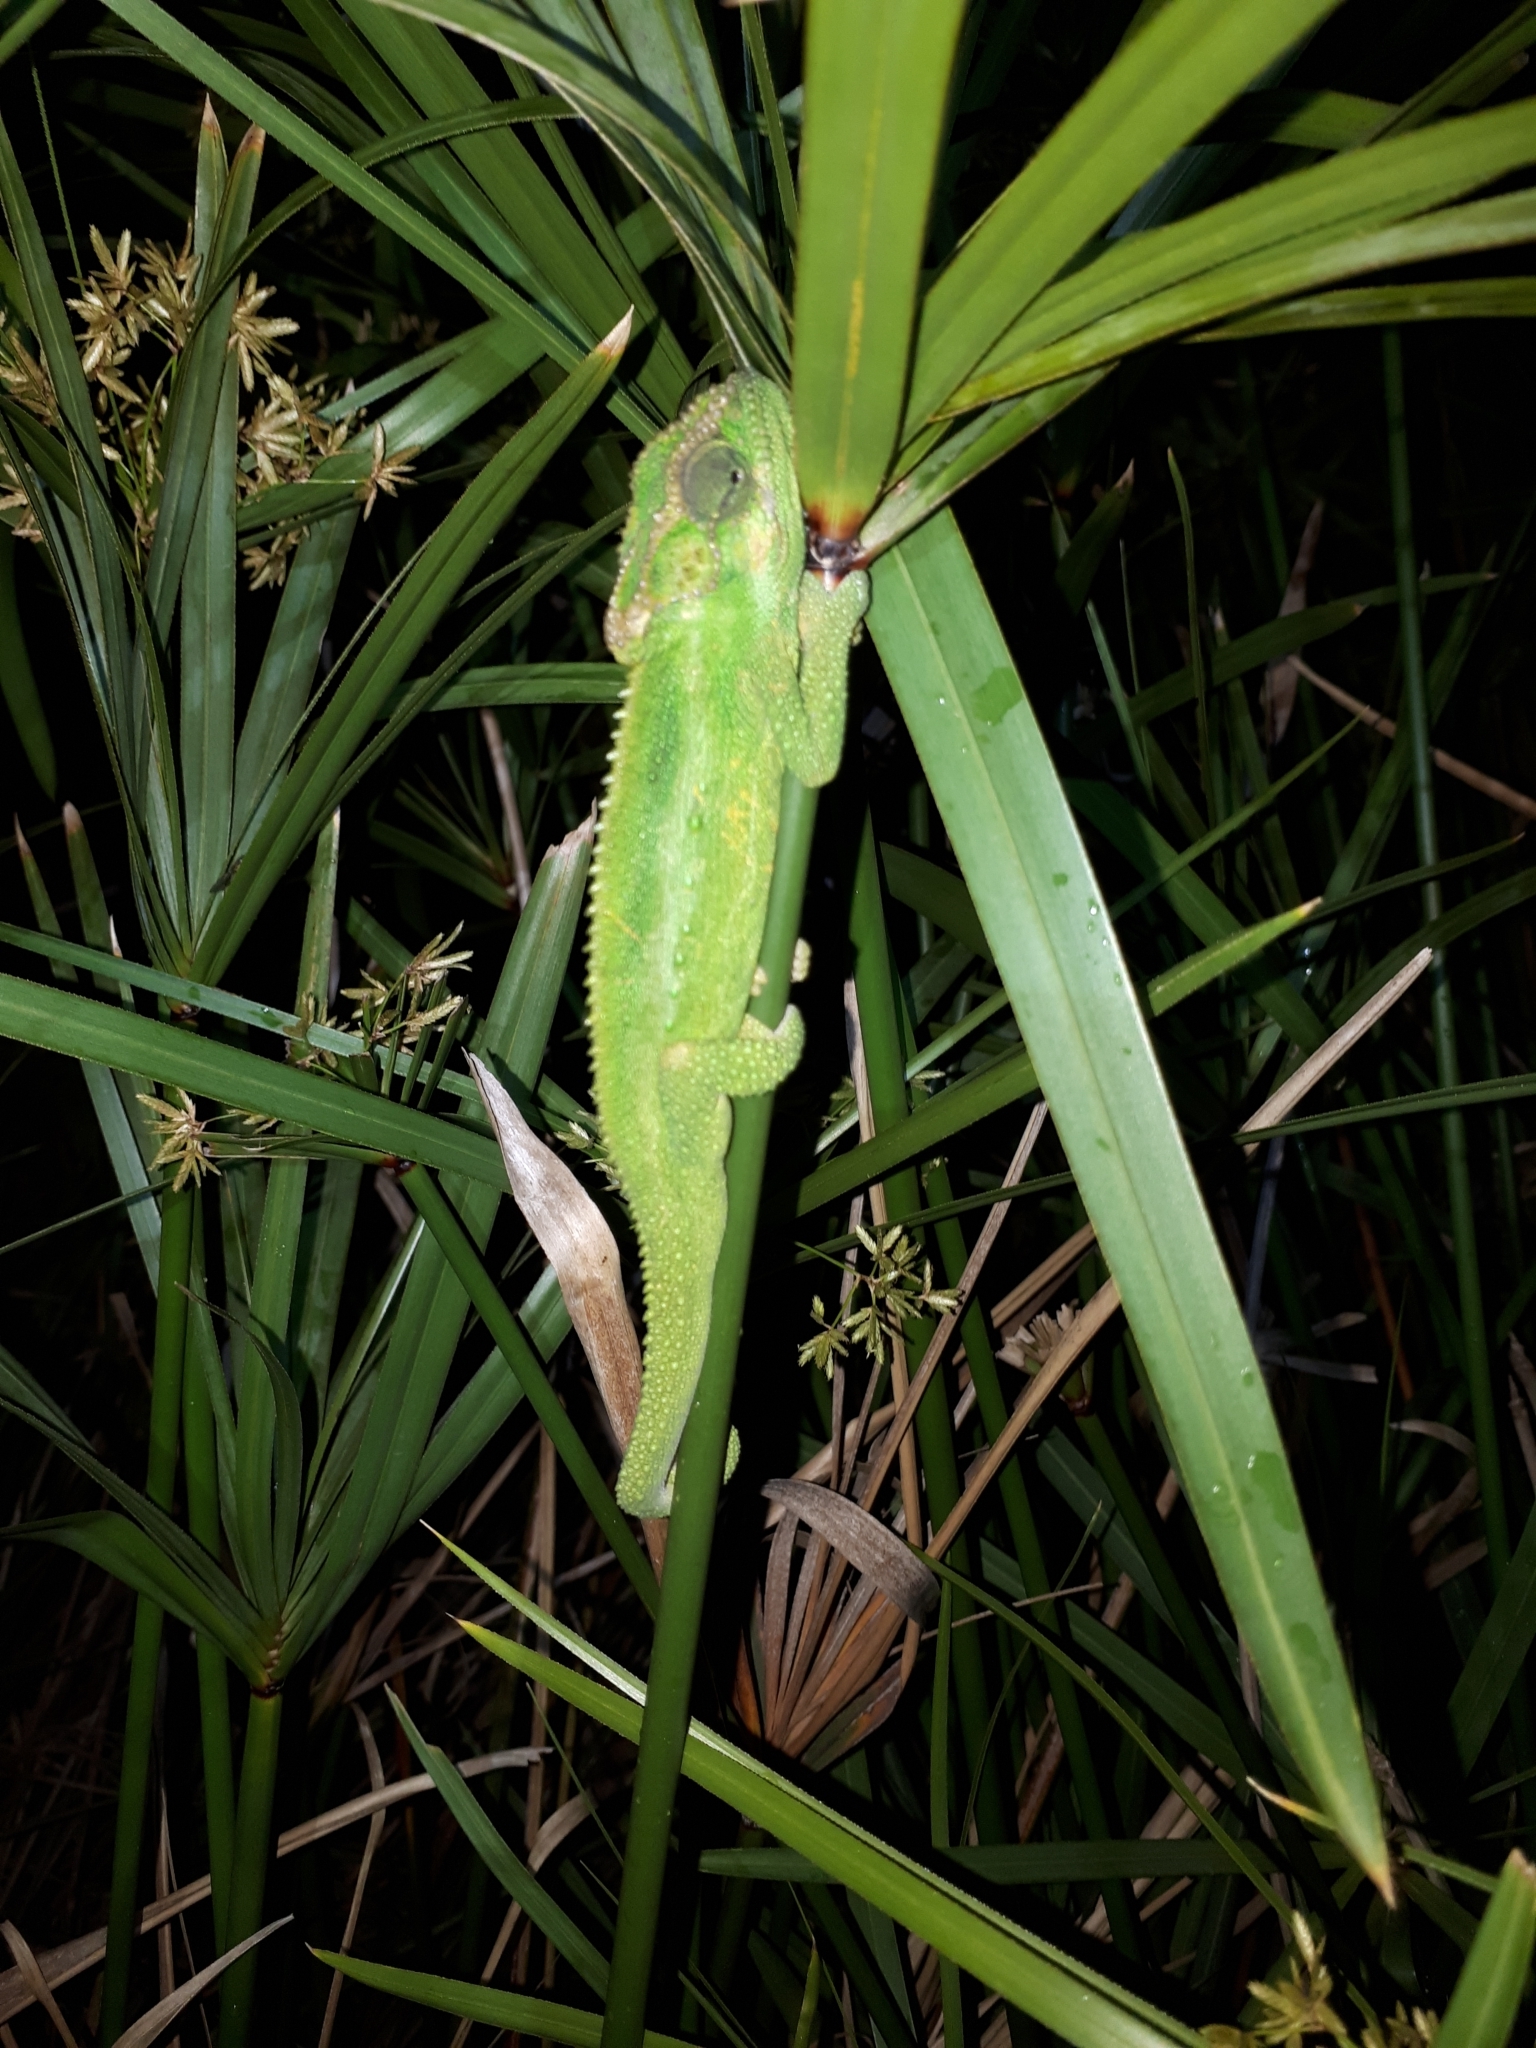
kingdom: Animalia
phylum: Chordata
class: Squamata
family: Chamaeleonidae
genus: Bradypodion
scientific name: Bradypodion pumilum
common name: Cape dwarf chameleon
